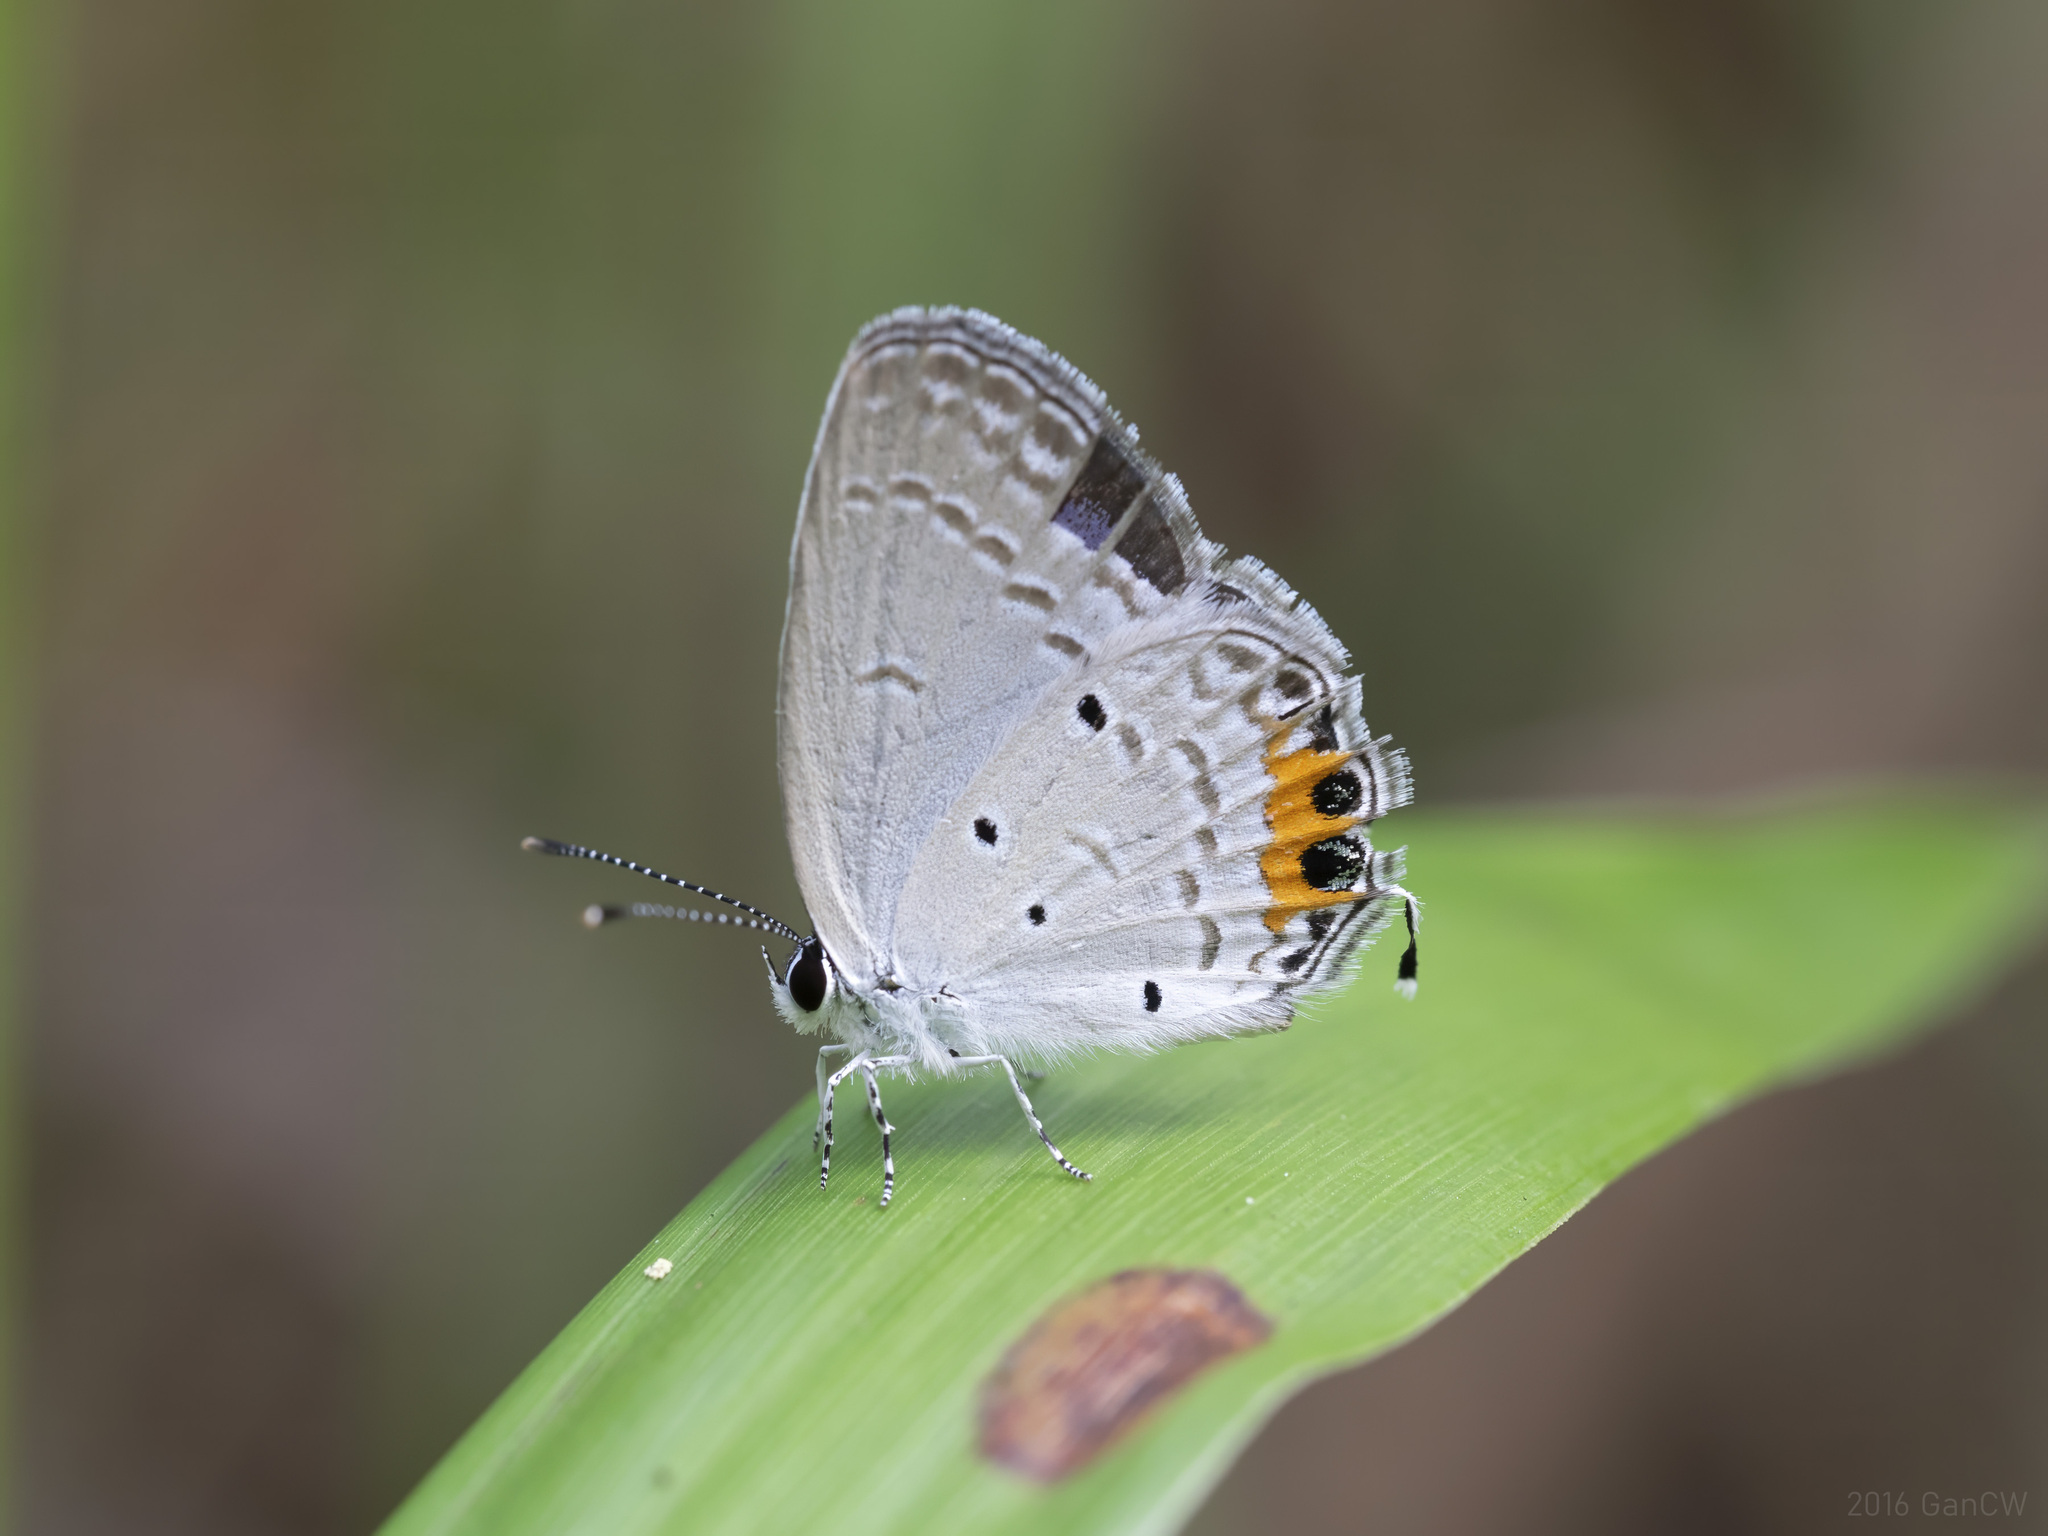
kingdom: Animalia
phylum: Arthropoda
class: Insecta
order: Lepidoptera
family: Lycaenidae
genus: Everes
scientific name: Everes lacturnus
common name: Orange-tipped pea-blue
